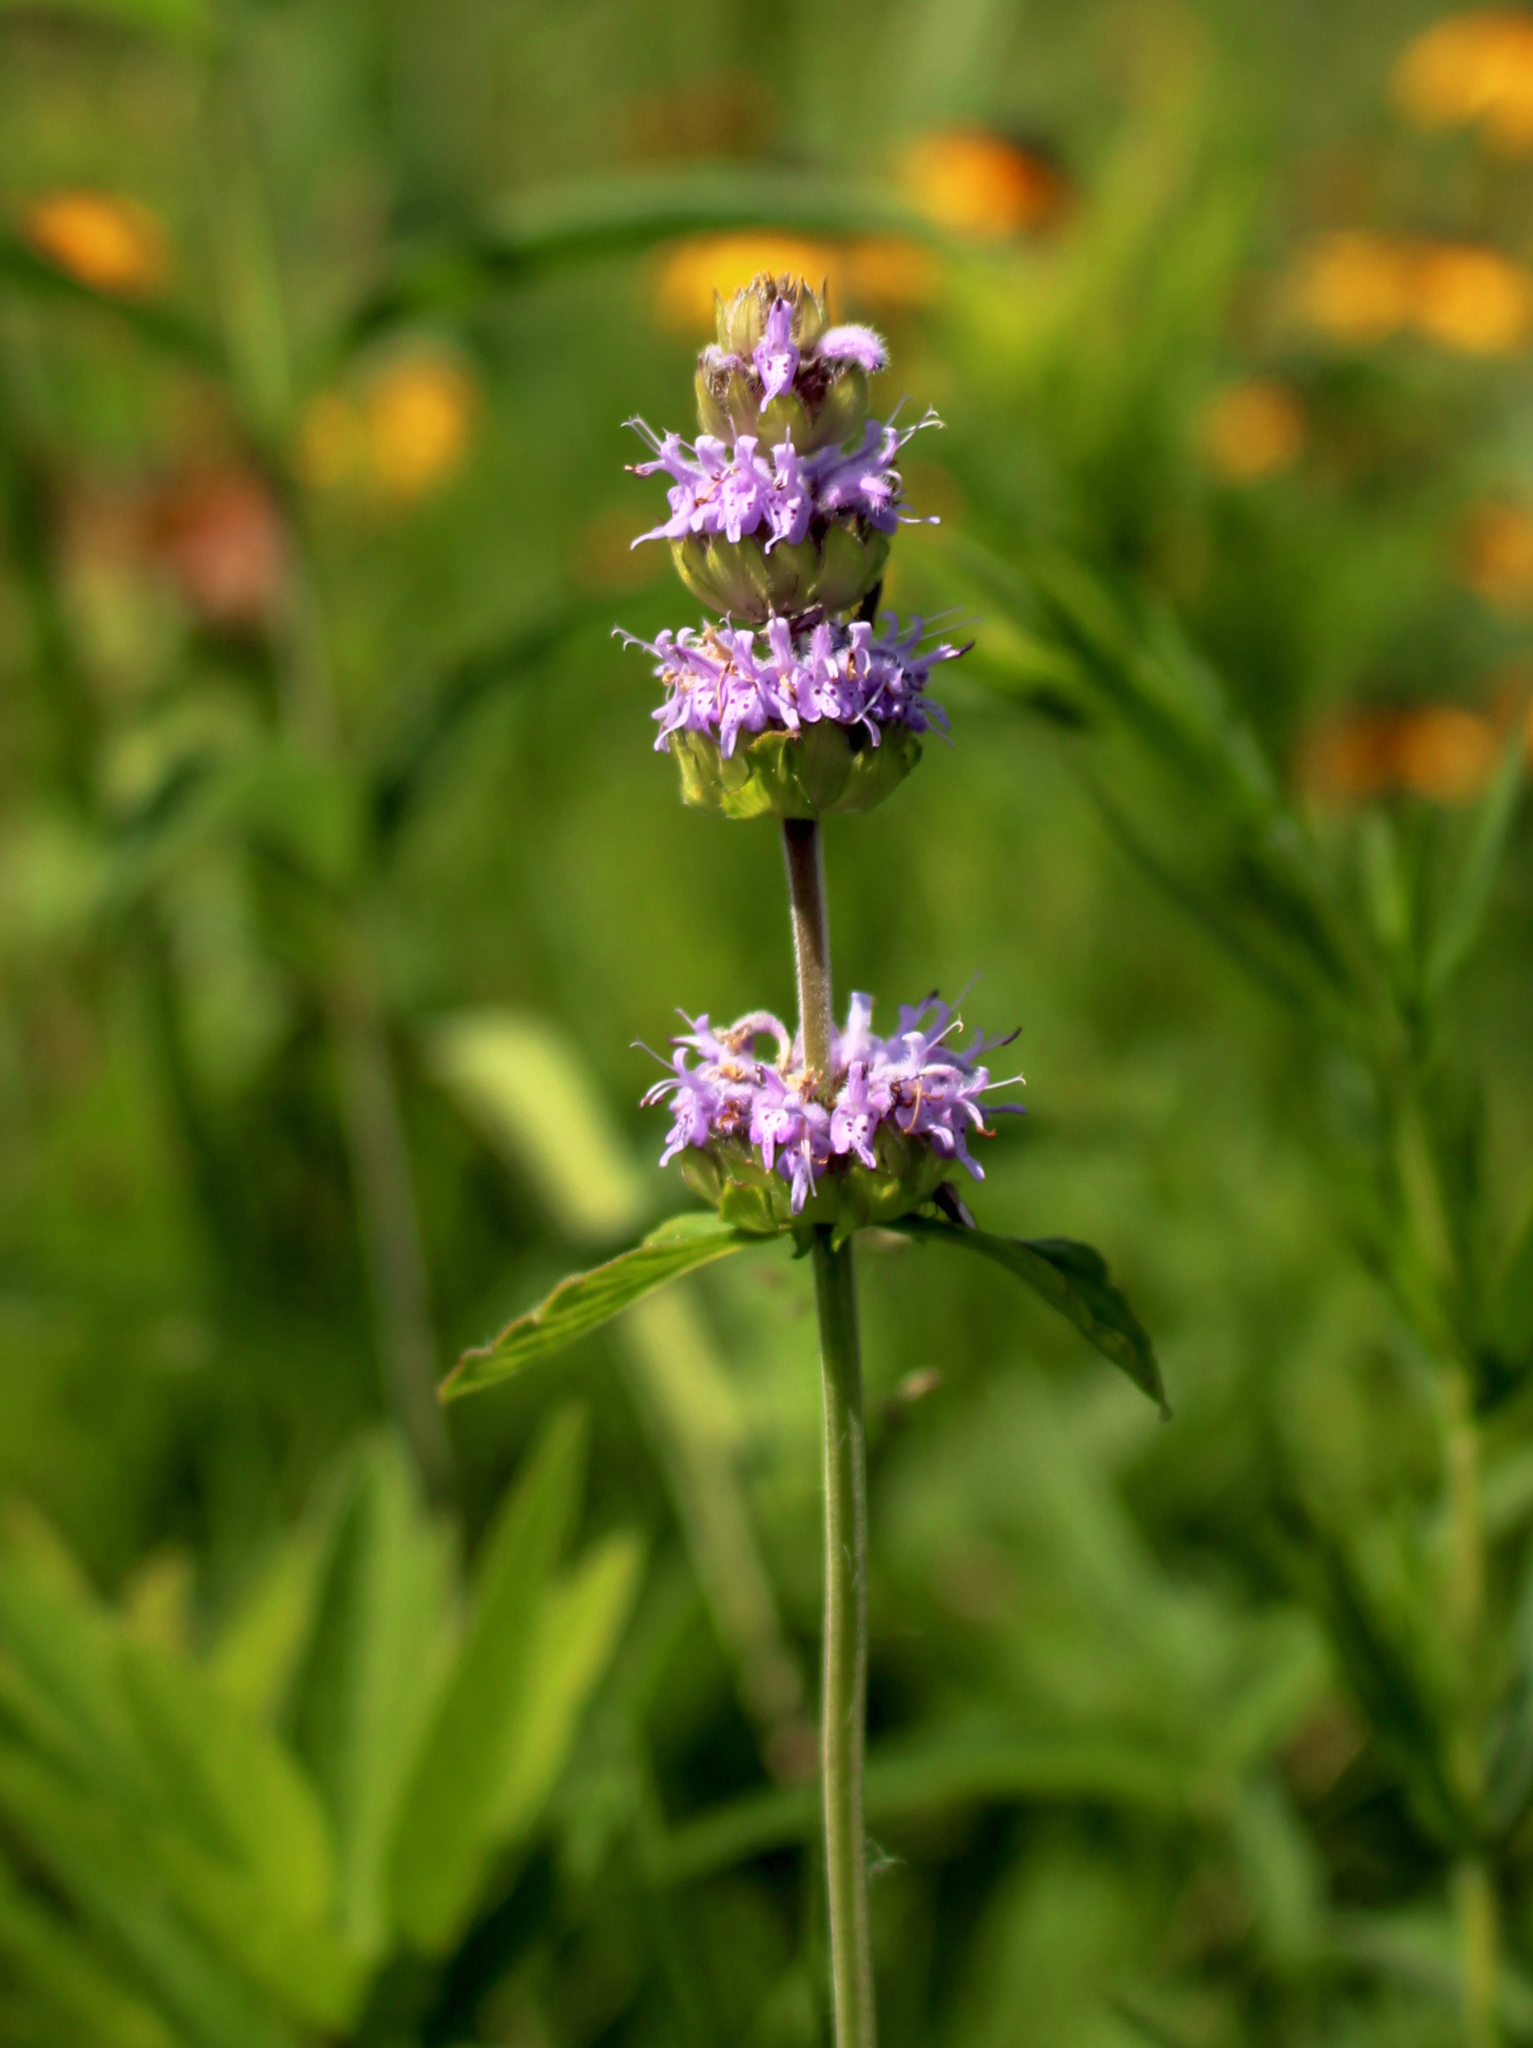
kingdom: Plantae
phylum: Tracheophyta
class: Magnoliopsida
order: Lamiales
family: Lamiaceae
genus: Blephilia
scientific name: Blephilia ciliata
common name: Downy blephilia
